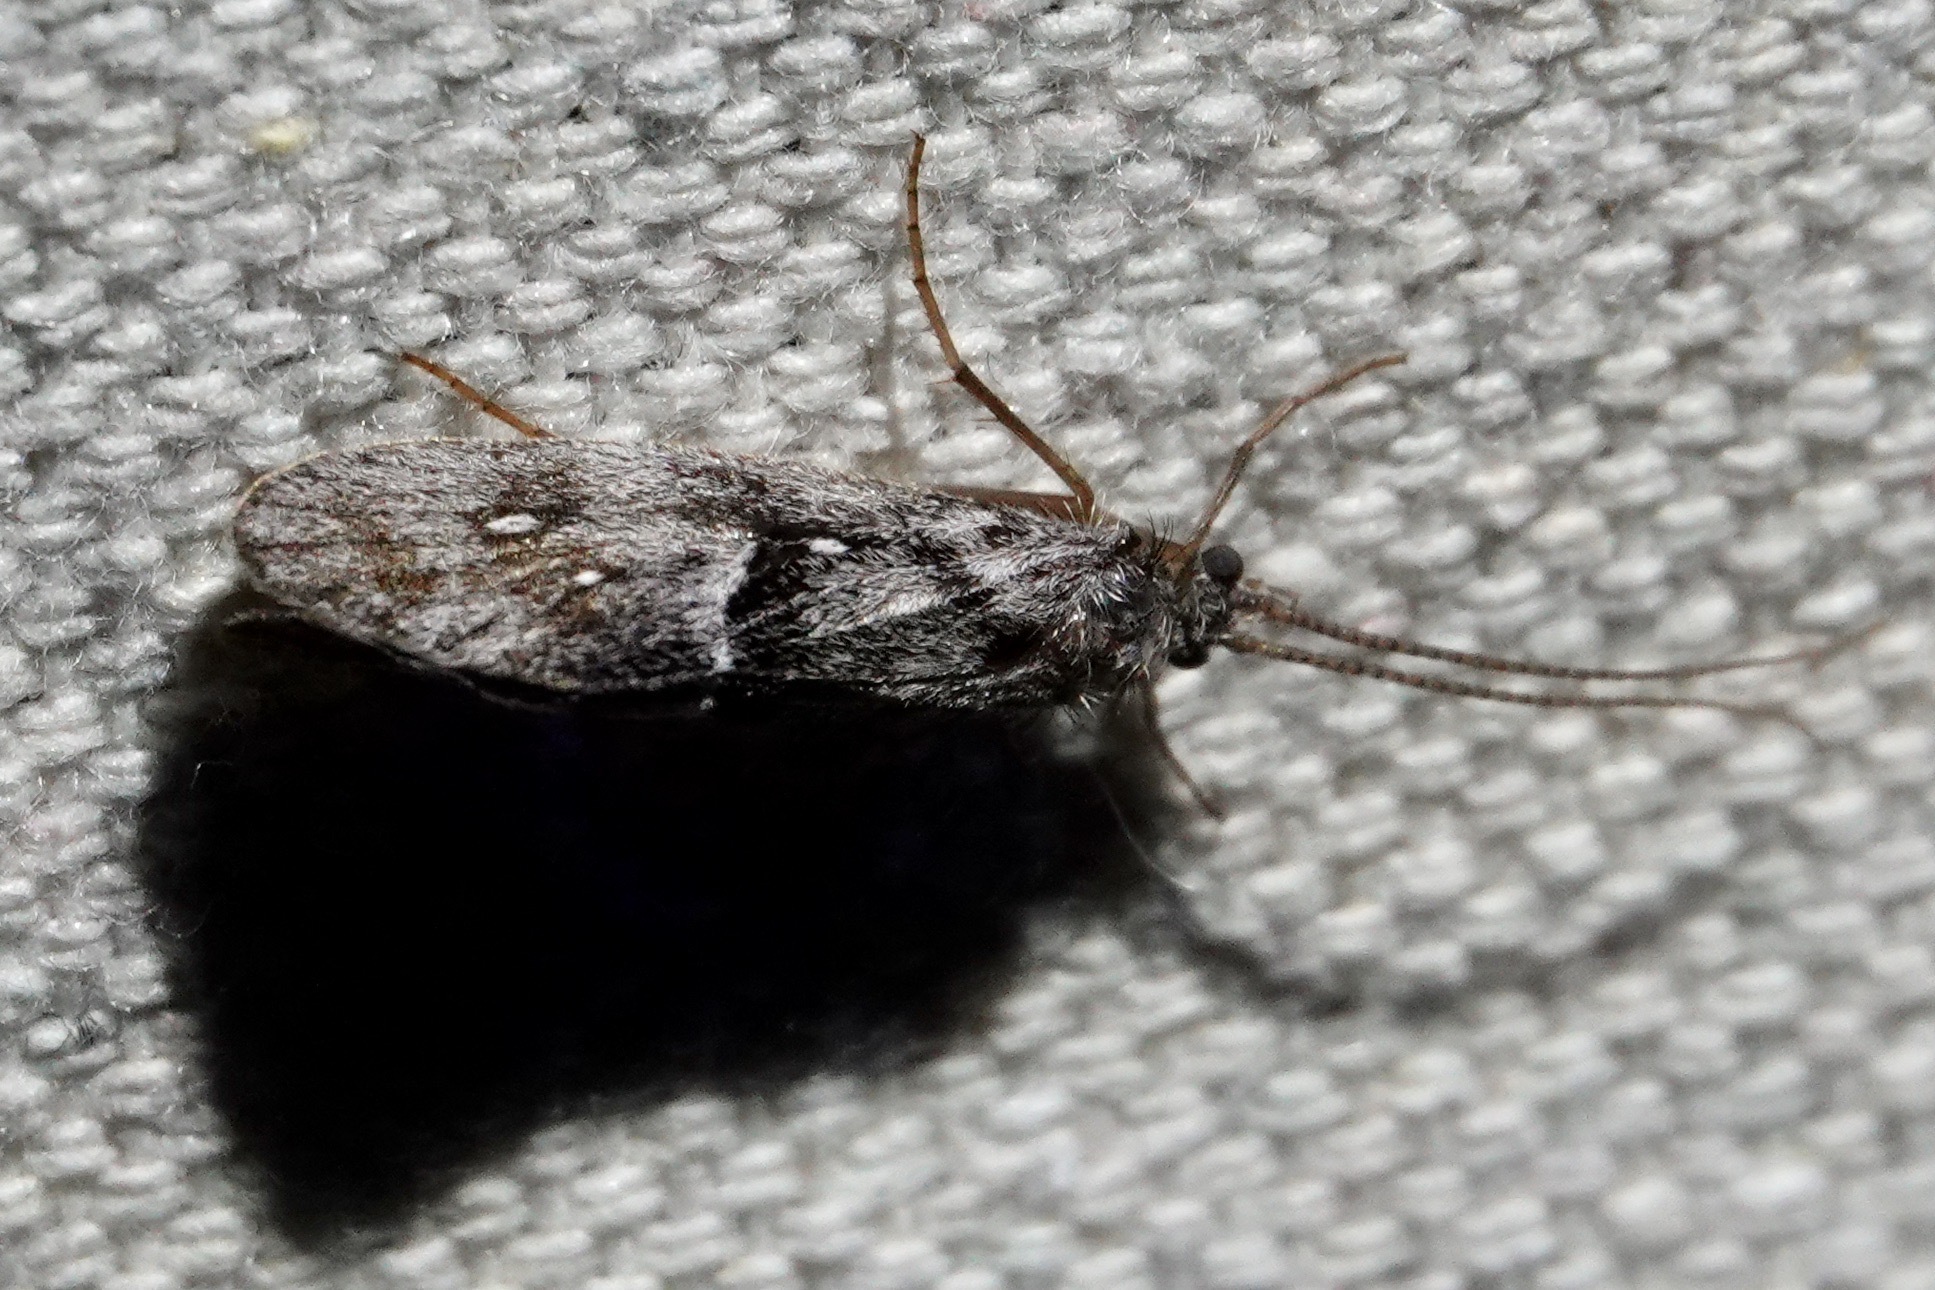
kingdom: Animalia
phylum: Arthropoda
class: Insecta
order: Trichoptera
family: Phryganeidae
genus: Yphria
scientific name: Yphria californica
